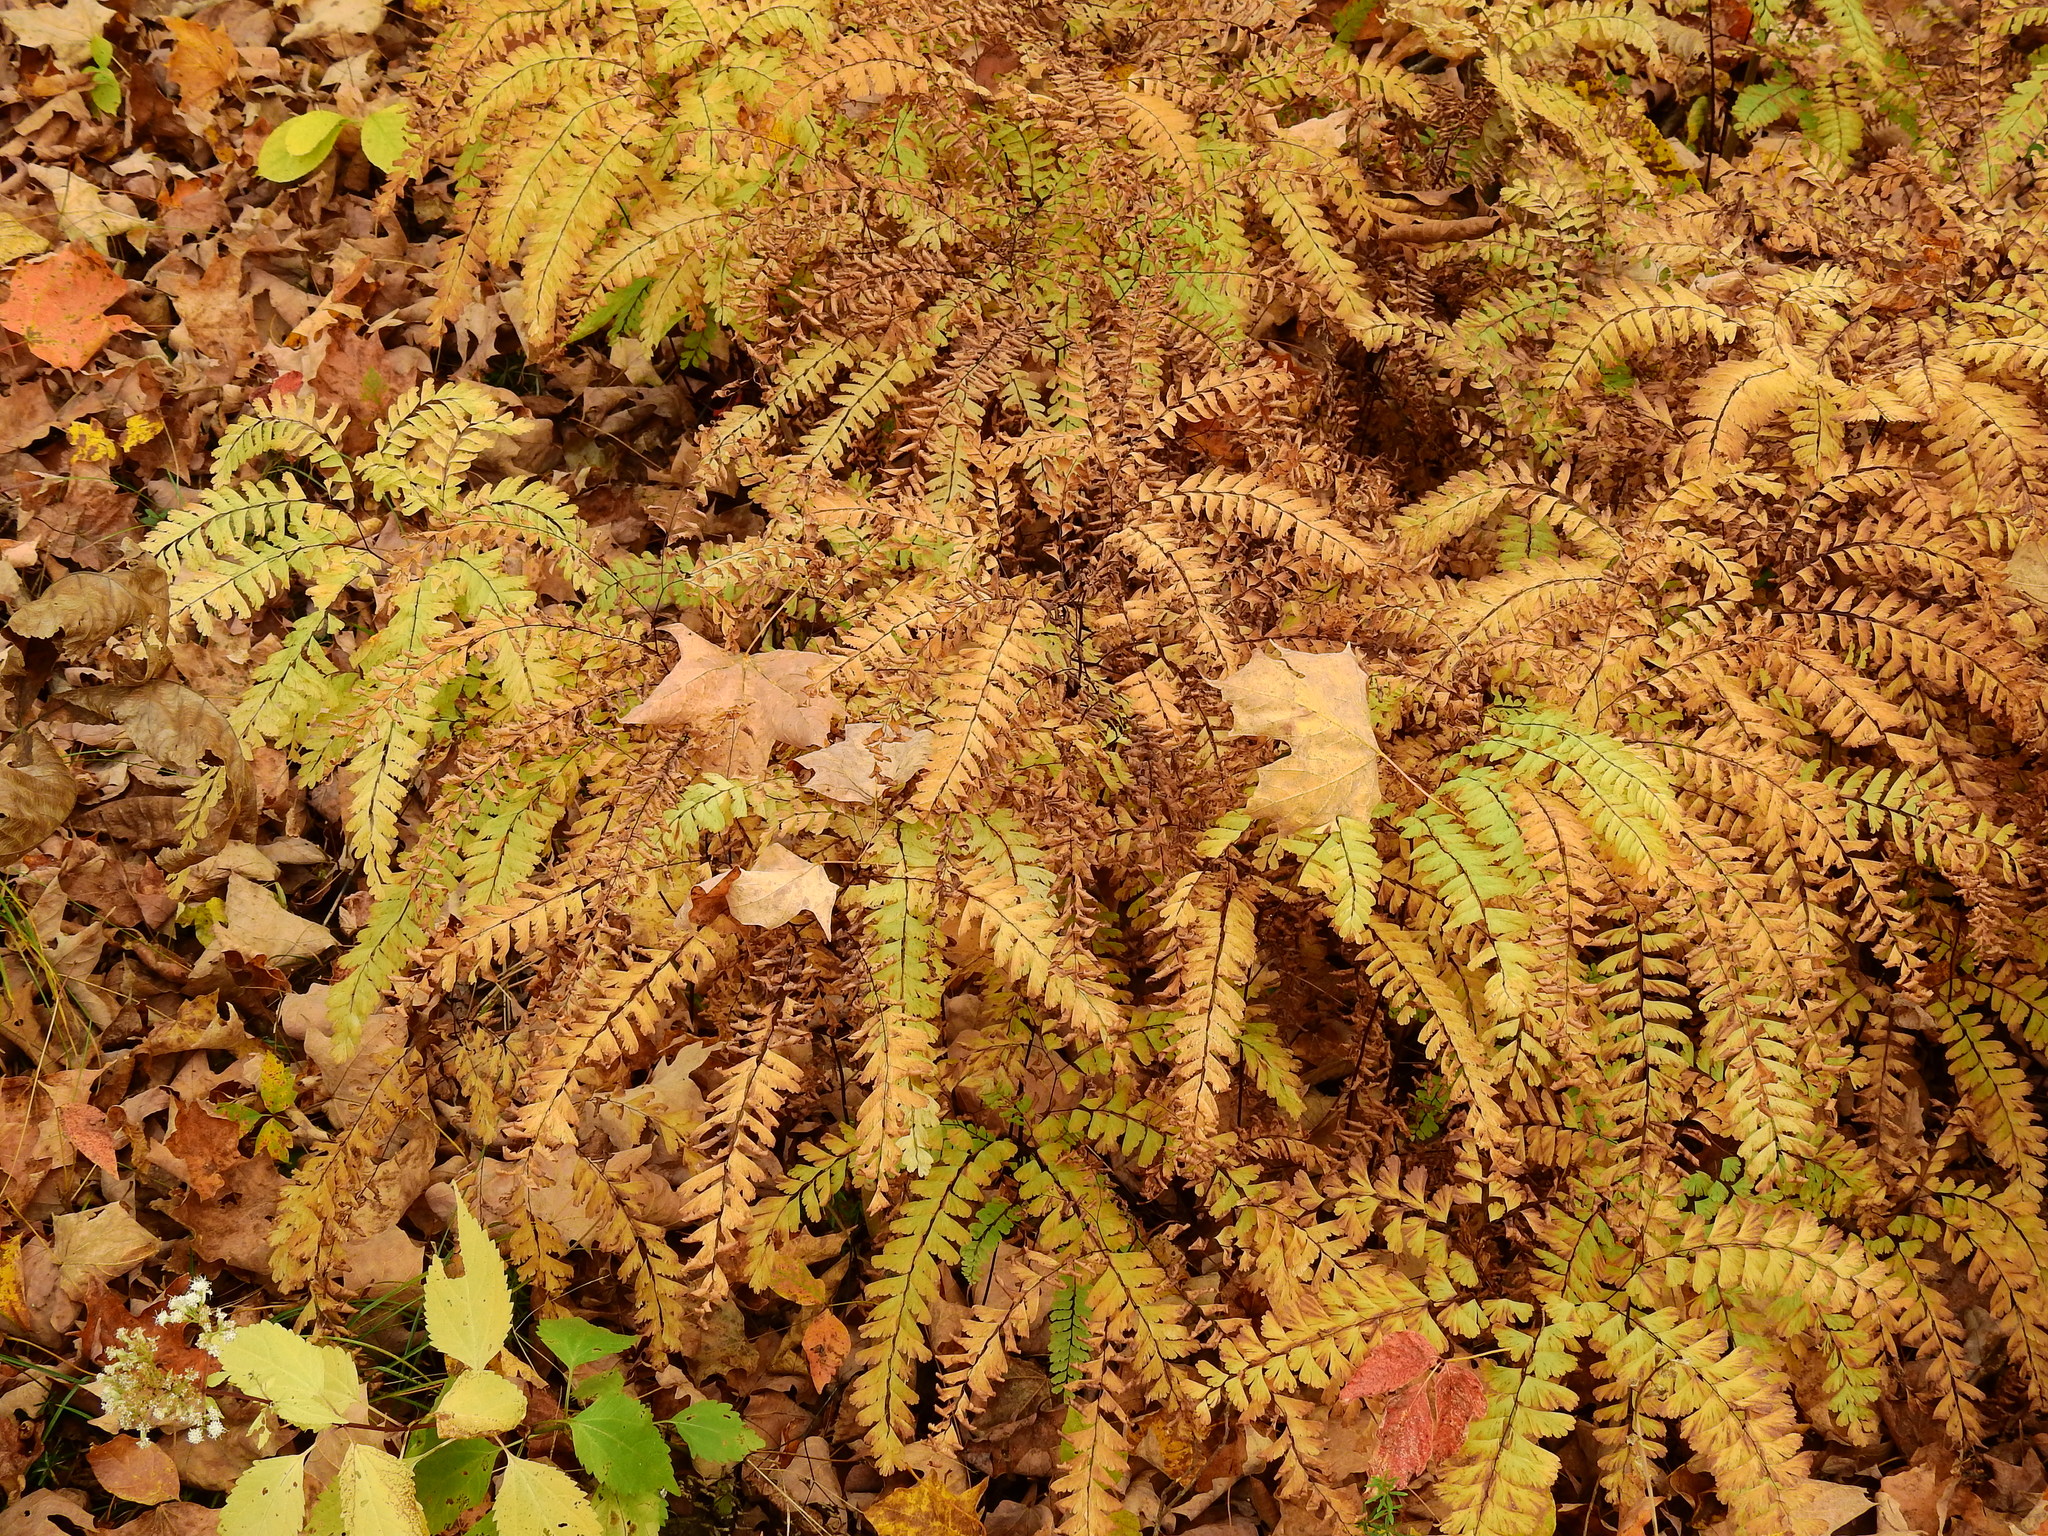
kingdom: Plantae
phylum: Tracheophyta
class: Polypodiopsida
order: Polypodiales
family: Pteridaceae
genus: Adiantum
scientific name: Adiantum pedatum
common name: Five-finger fern
